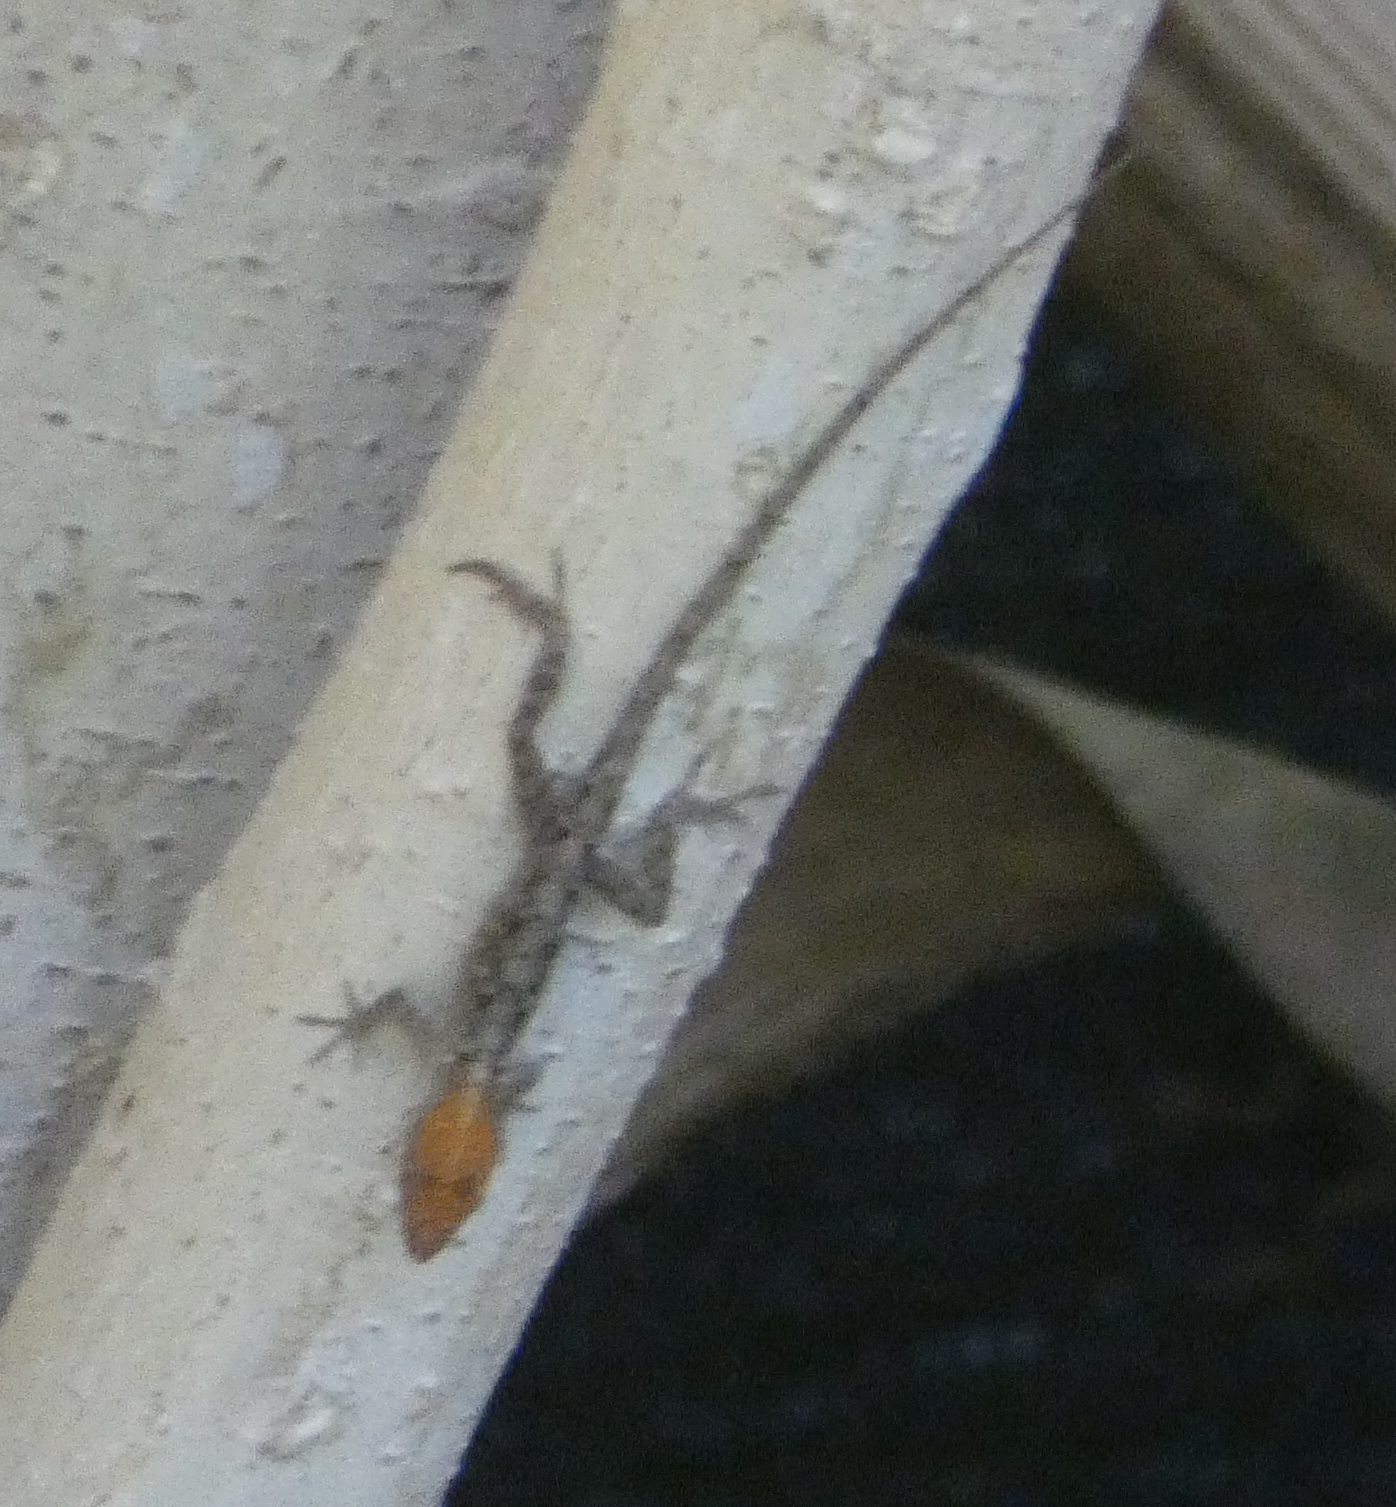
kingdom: Animalia
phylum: Chordata
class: Squamata
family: Dactyloidae
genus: Anolis
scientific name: Anolis sagrei
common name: Brown anole
